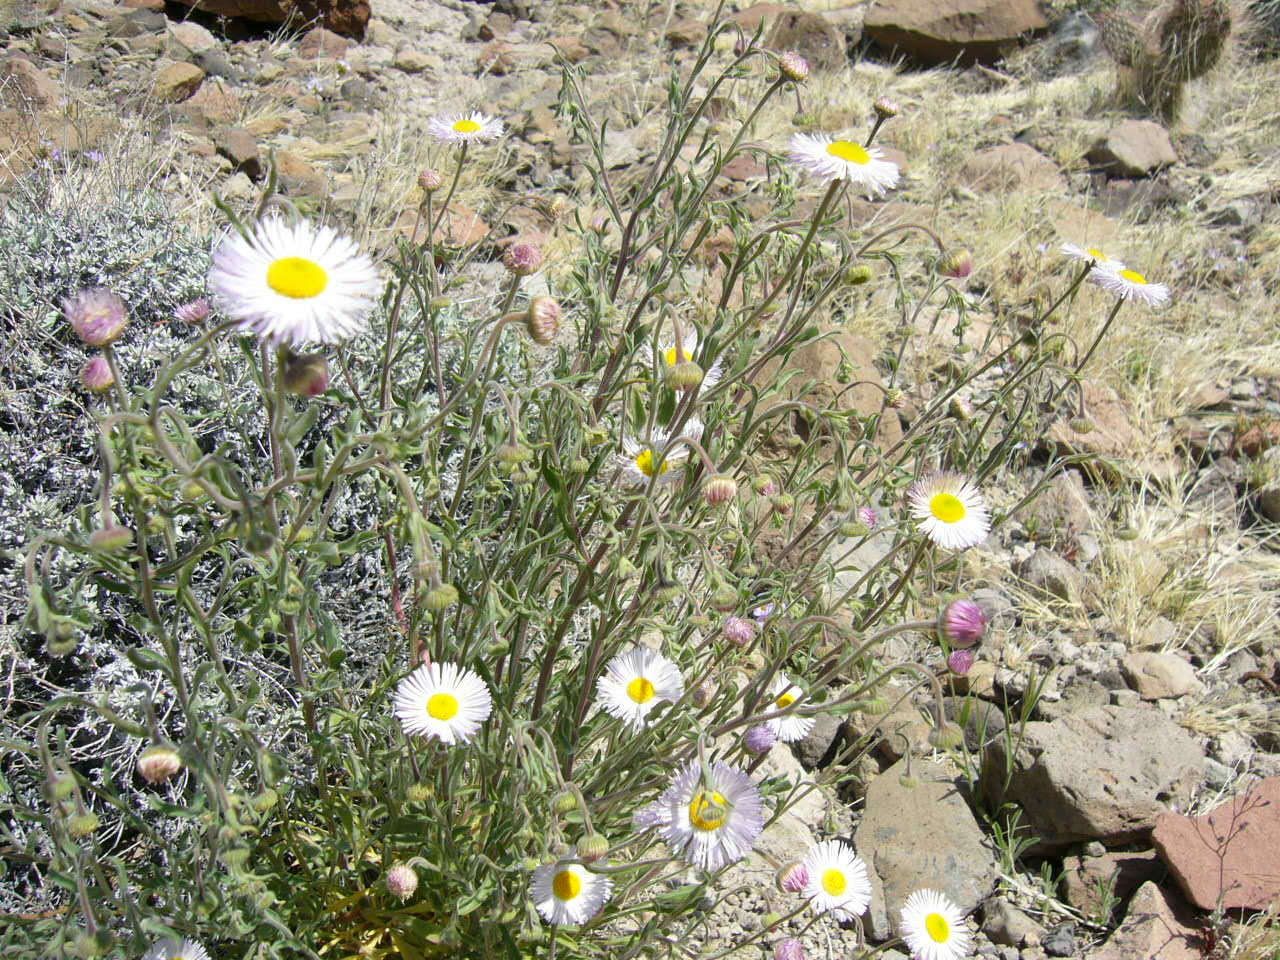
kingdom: Plantae
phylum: Tracheophyta
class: Magnoliopsida
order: Asterales
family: Asteraceae
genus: Erigeron
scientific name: Erigeron divergens
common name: Diffuse fleabane
